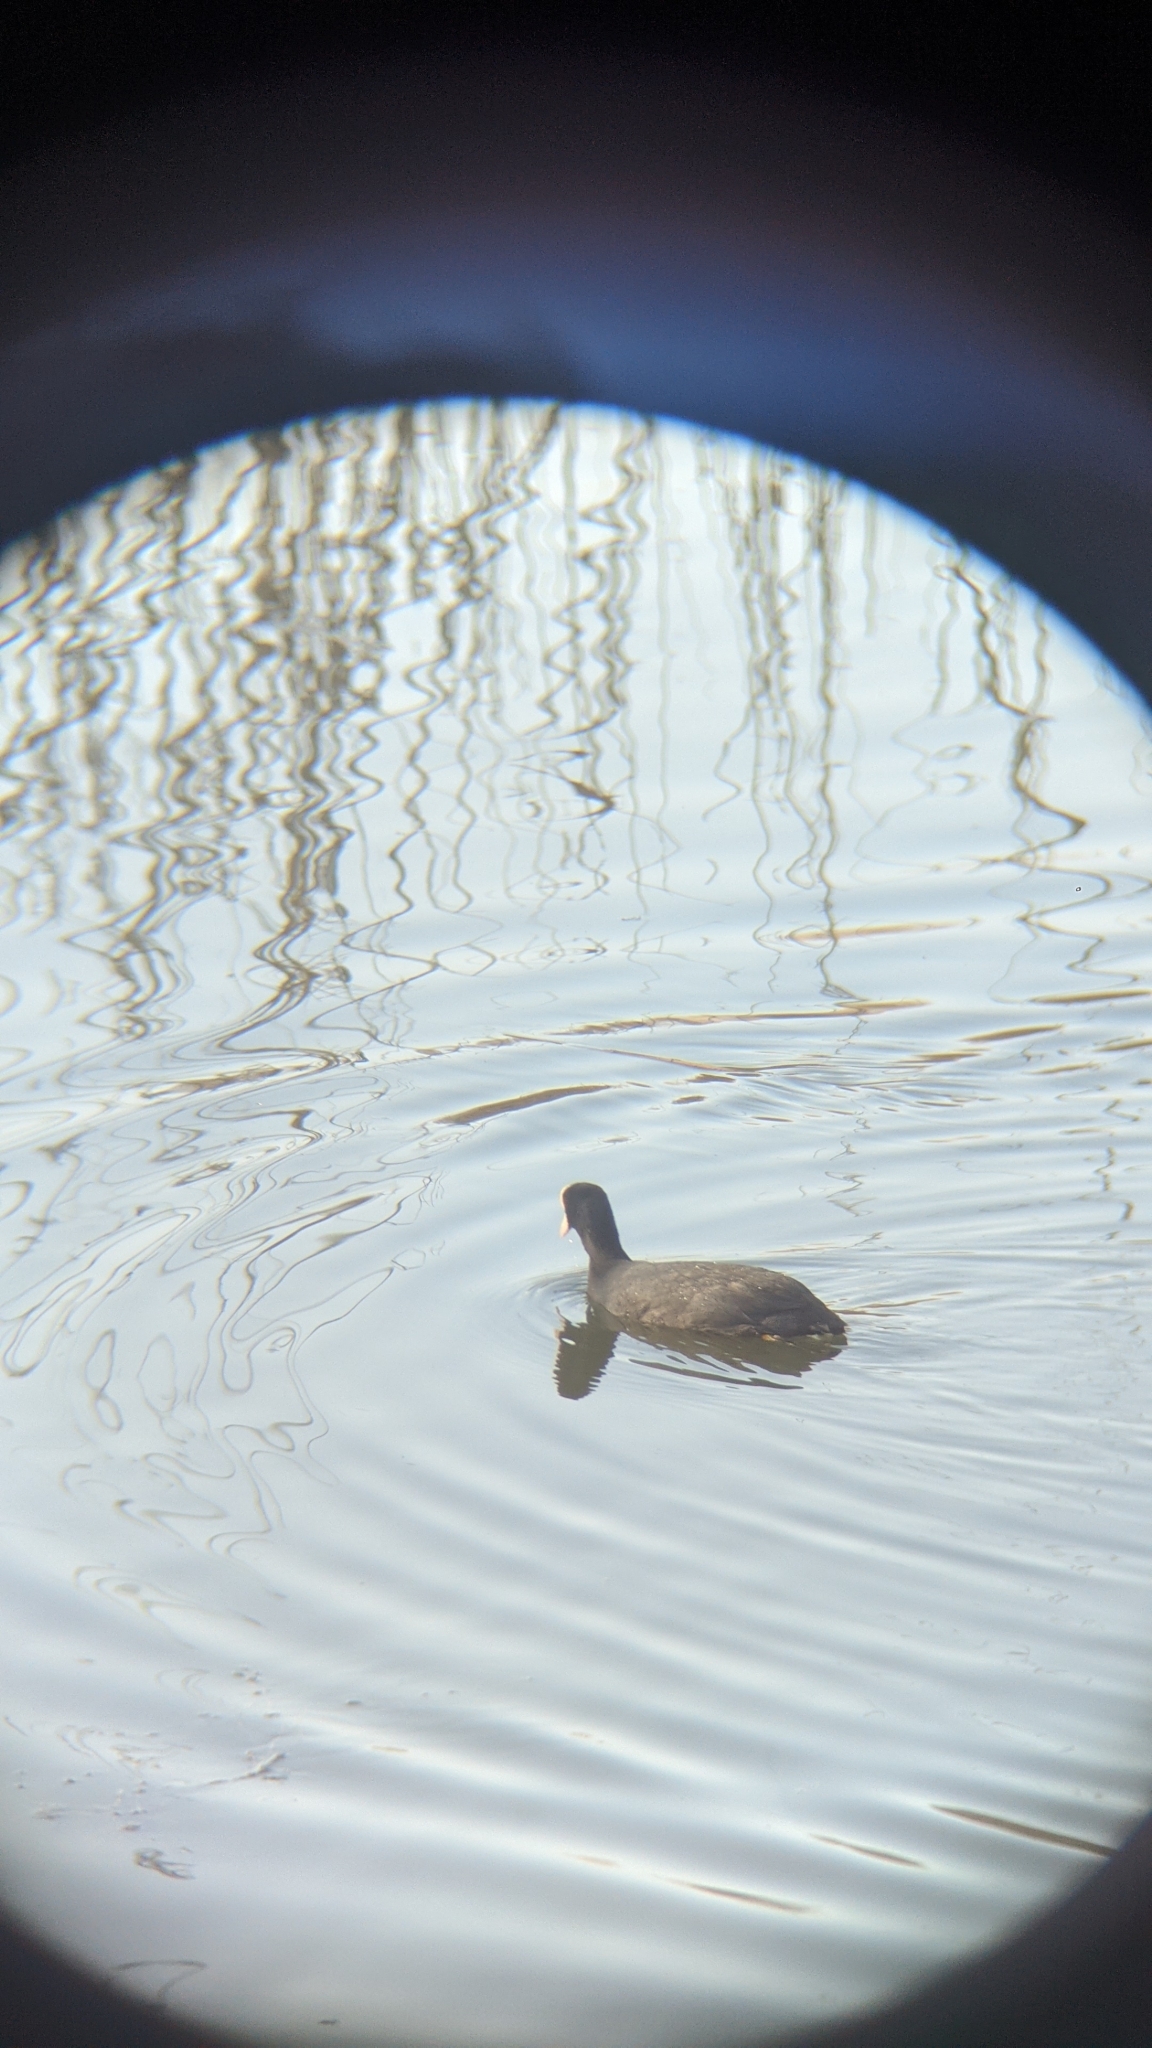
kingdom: Animalia
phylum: Chordata
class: Aves
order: Gruiformes
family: Rallidae
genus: Fulica
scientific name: Fulica atra
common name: Eurasian coot
